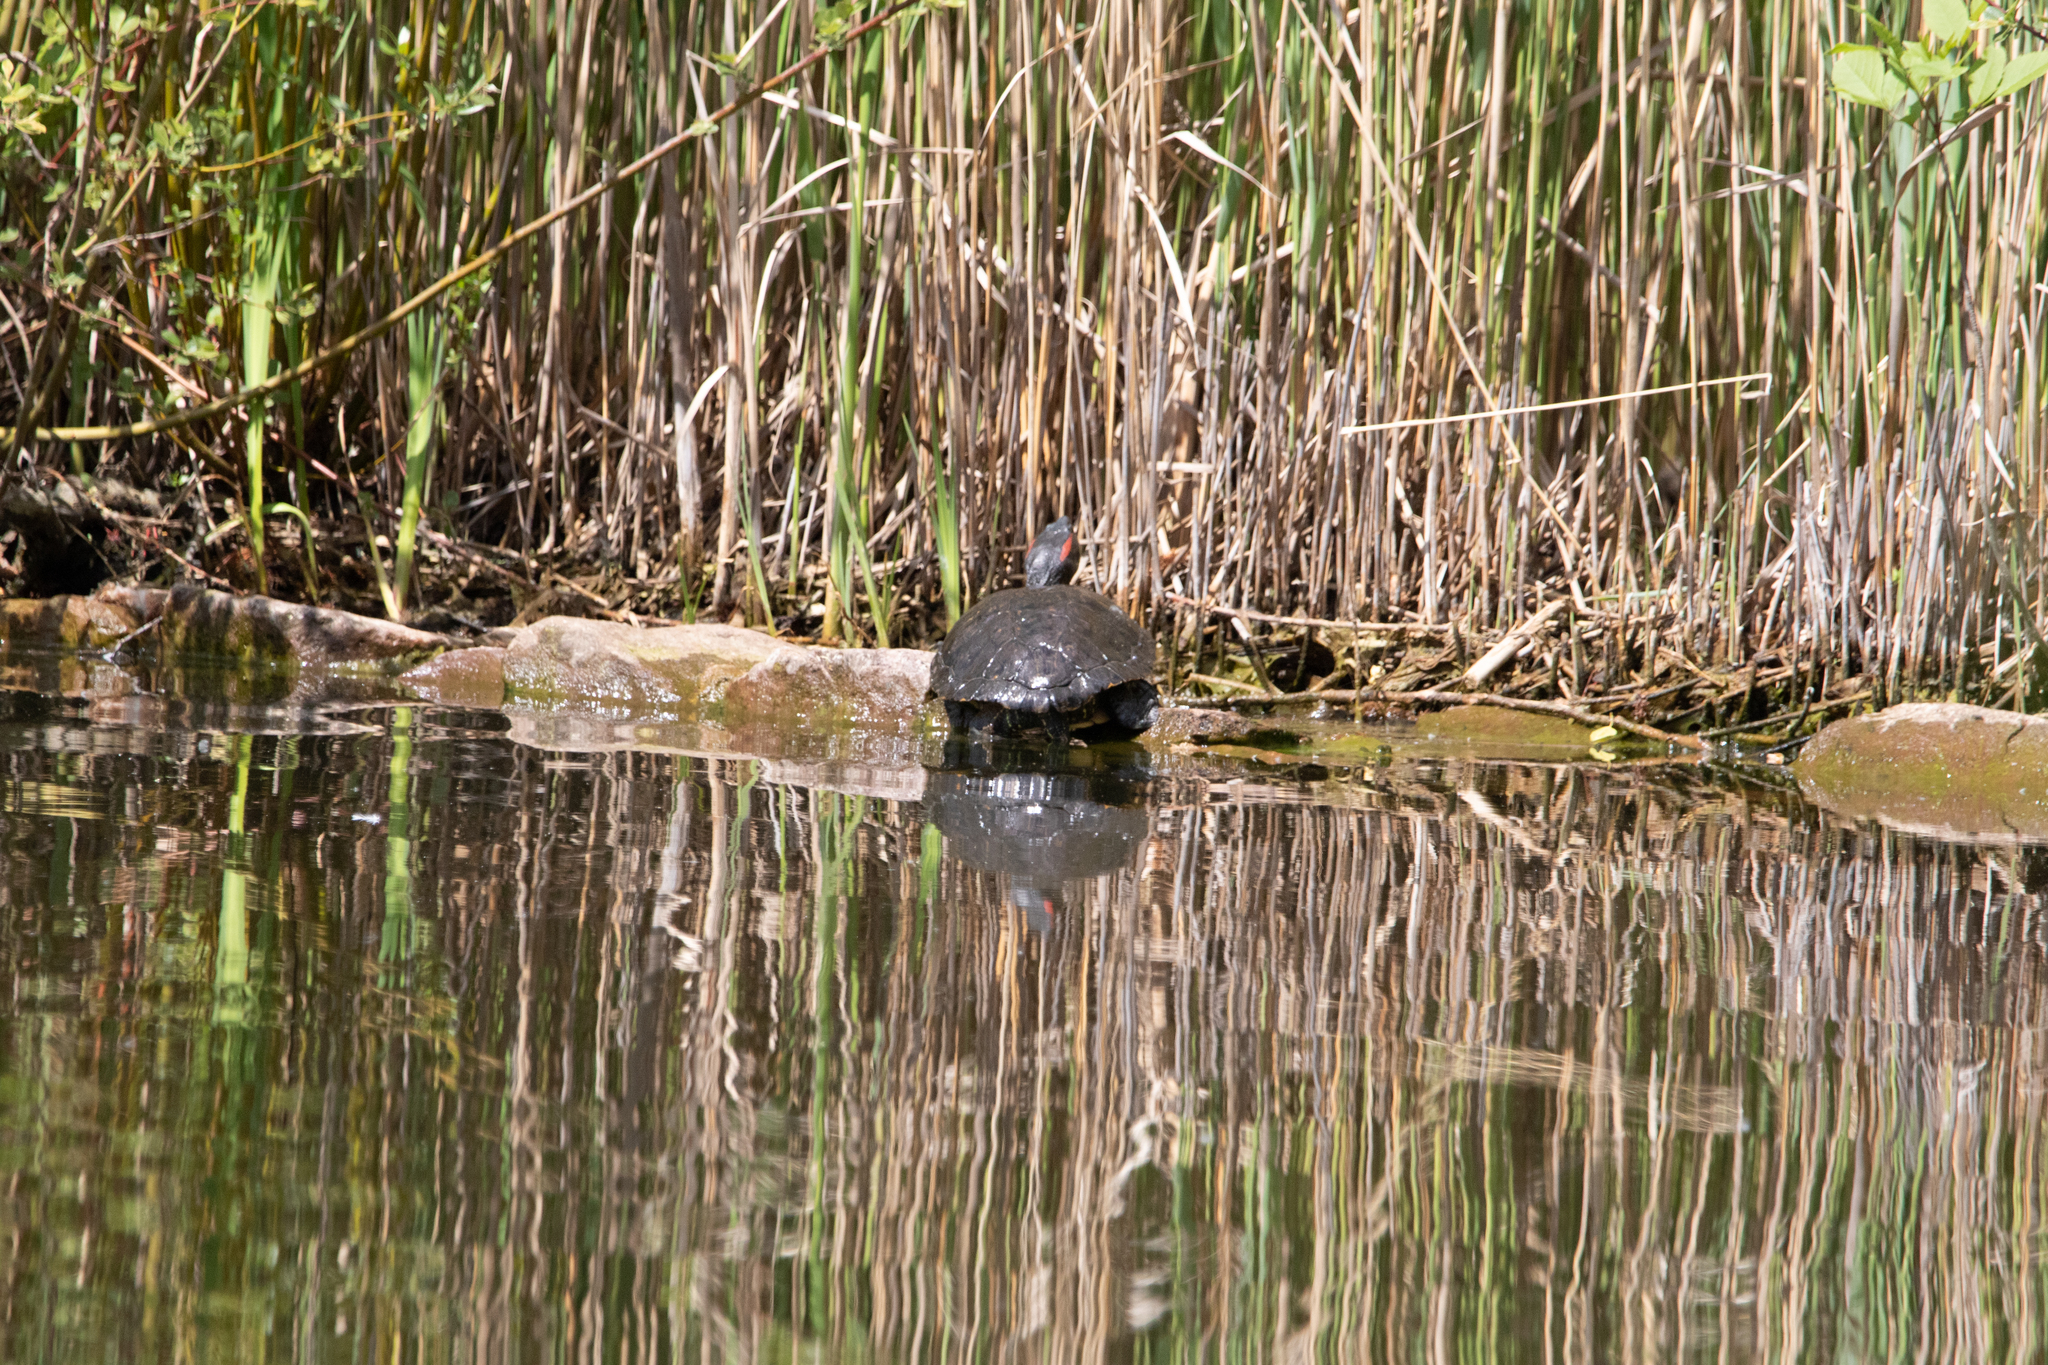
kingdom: Animalia
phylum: Chordata
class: Testudines
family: Emydidae
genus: Trachemys
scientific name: Trachemys scripta
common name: Slider
